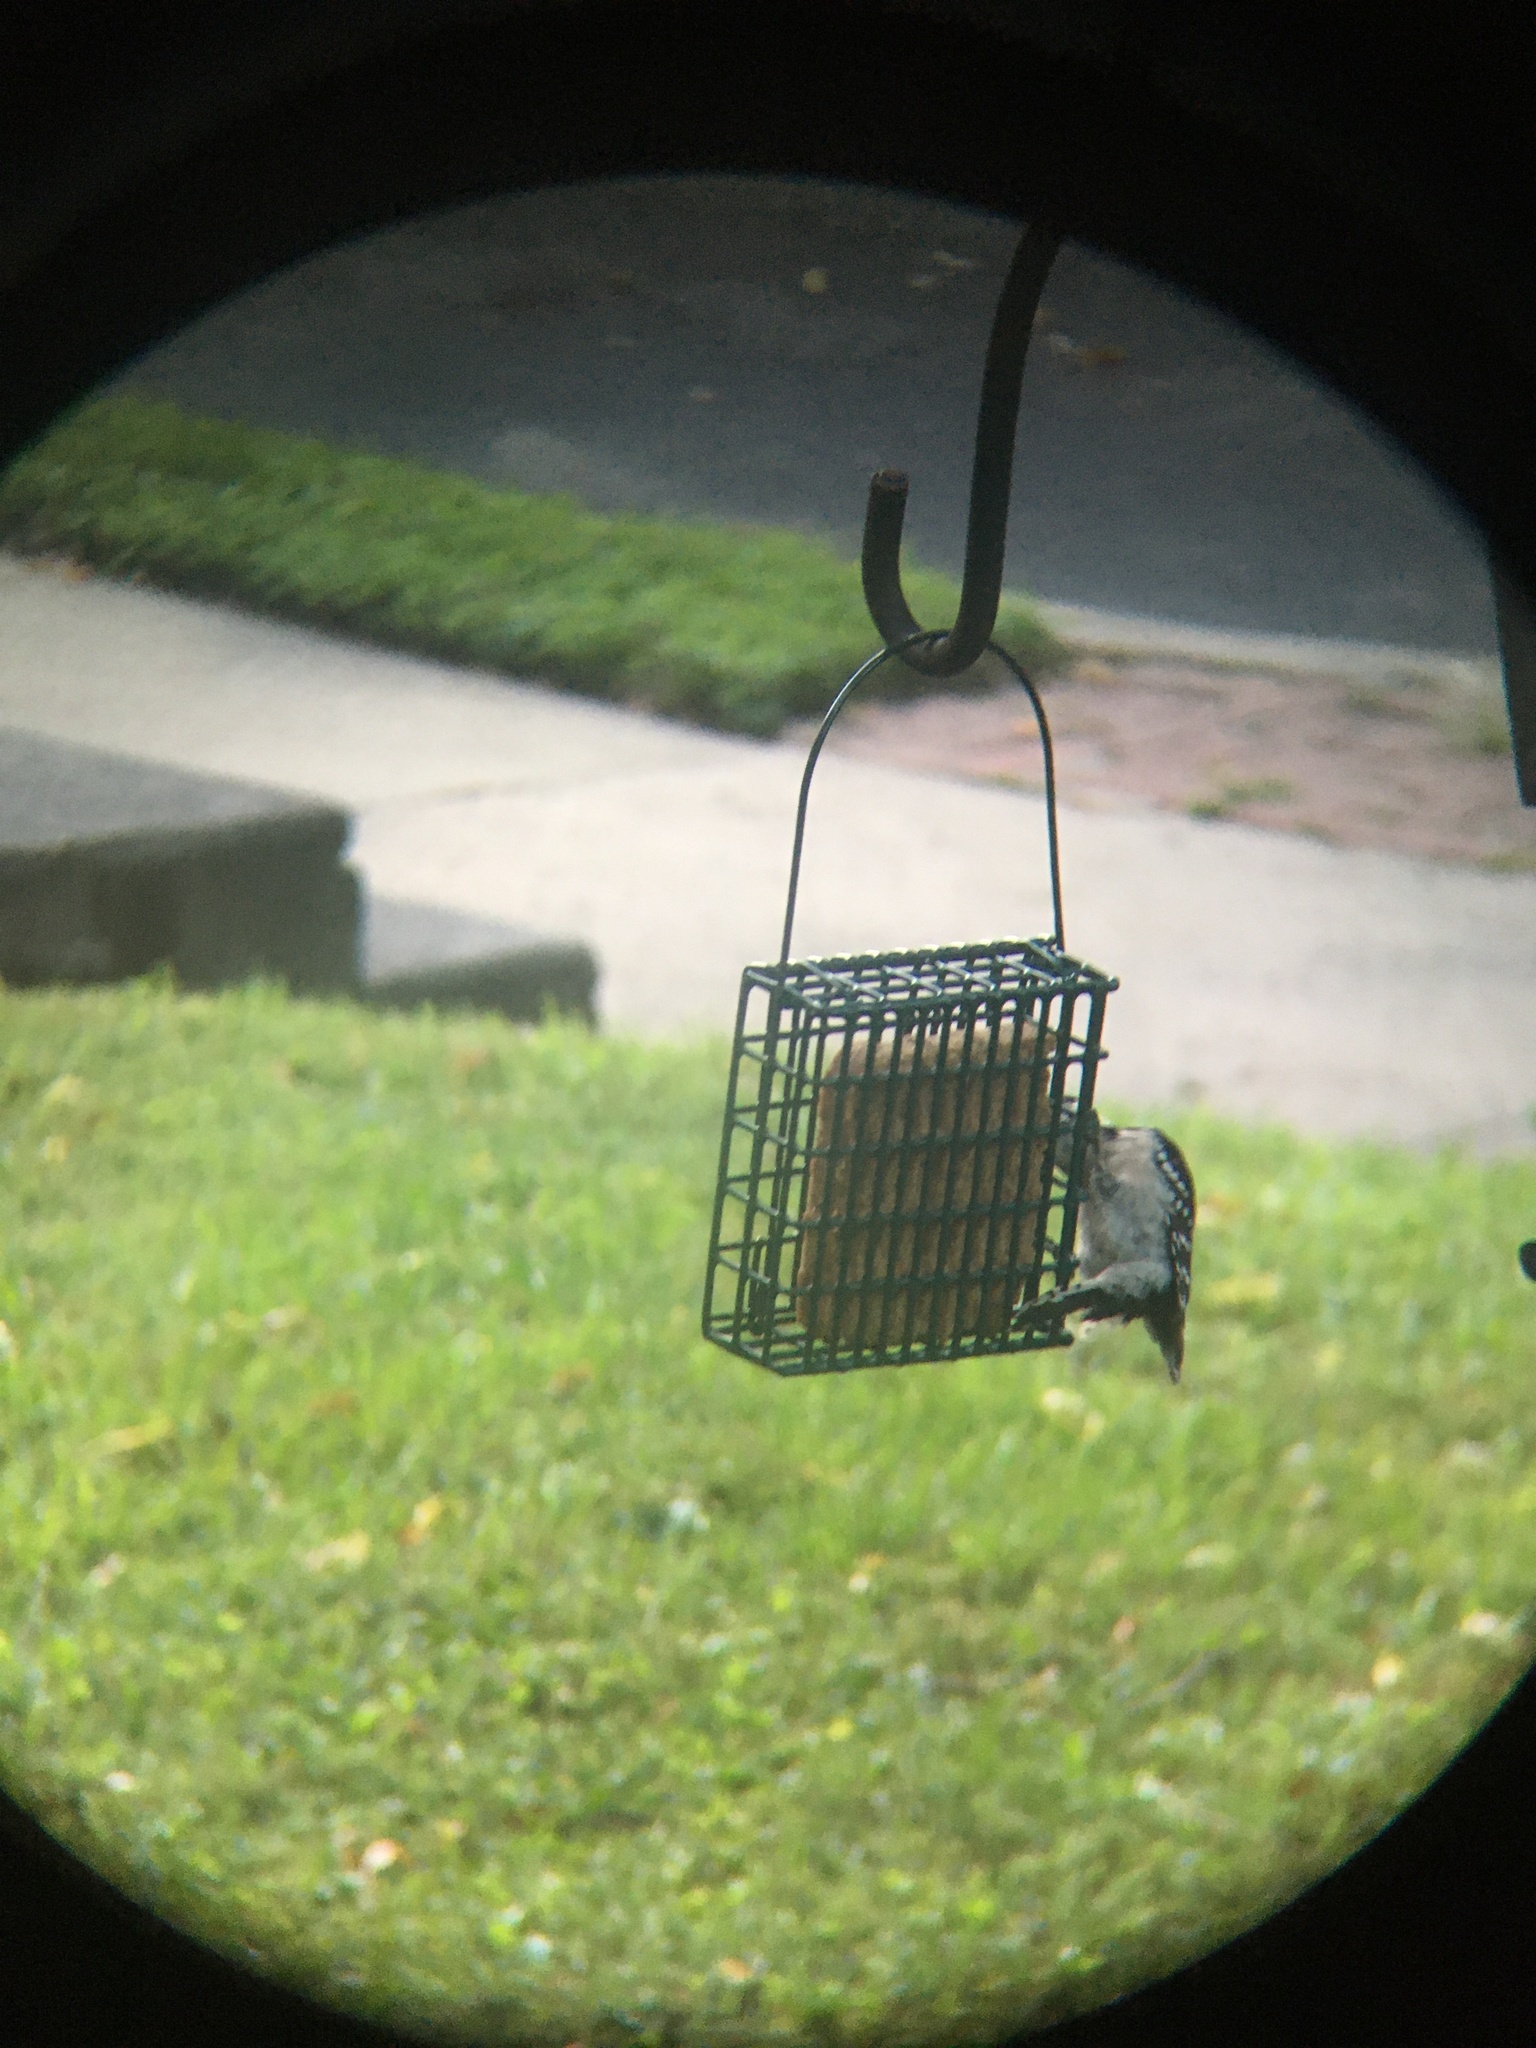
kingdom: Animalia
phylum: Chordata
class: Aves
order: Piciformes
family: Picidae
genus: Dryobates
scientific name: Dryobates pubescens
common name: Downy woodpecker
